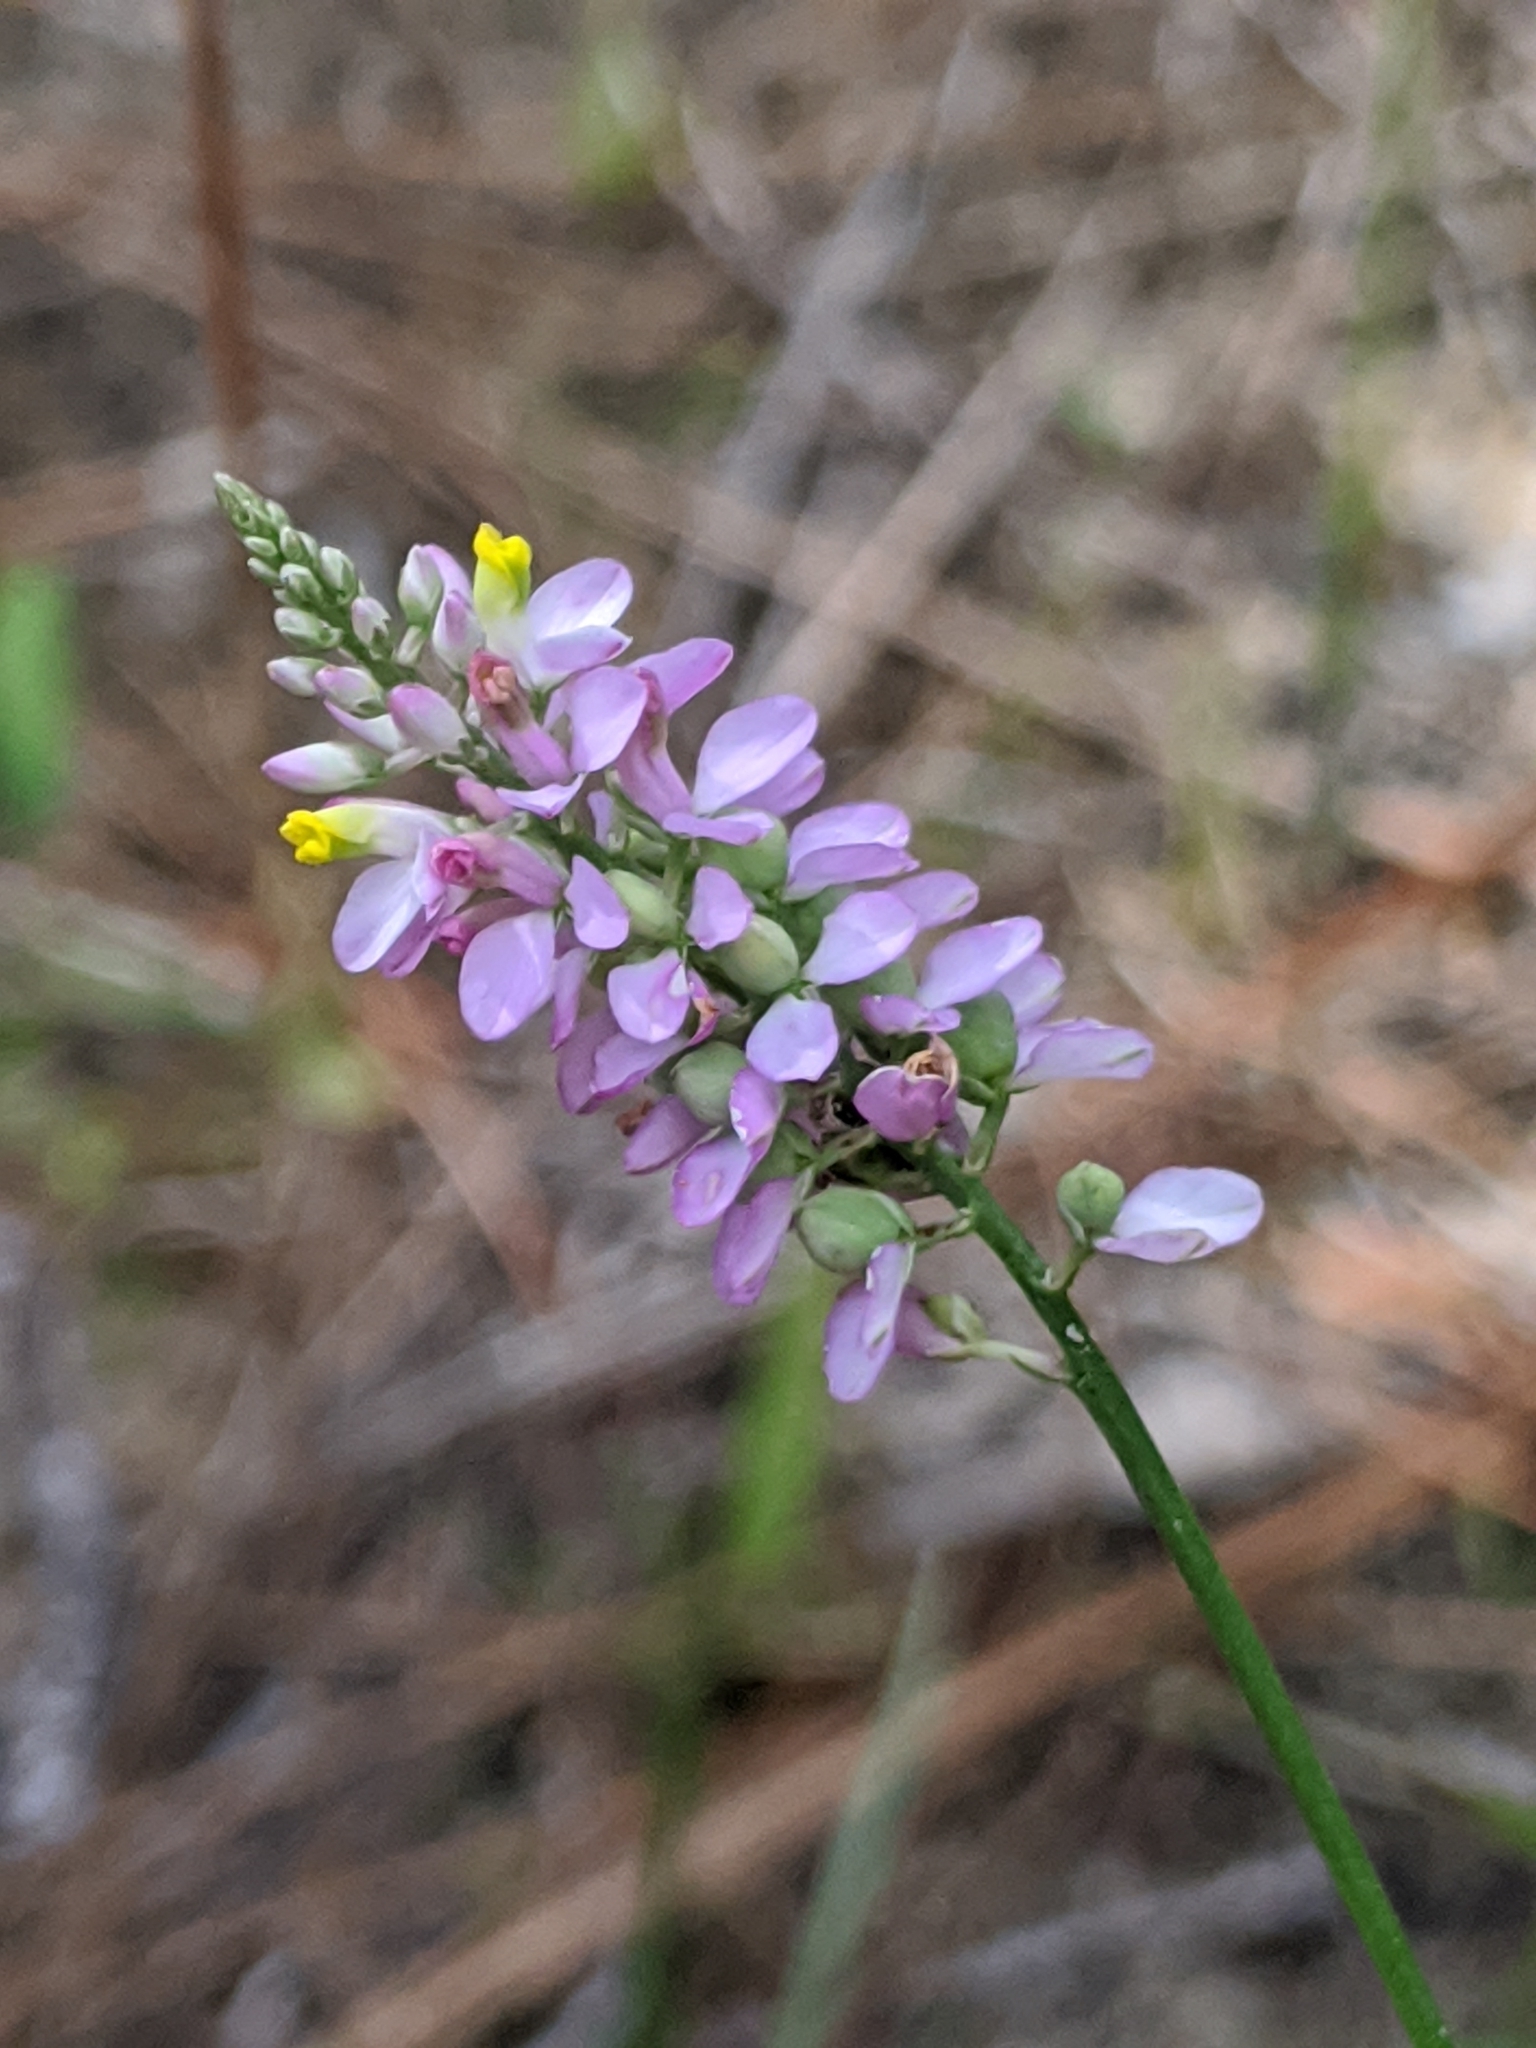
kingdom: Plantae
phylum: Tracheophyta
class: Magnoliopsida
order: Fabales
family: Polygalaceae
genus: Polygala
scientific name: Polygala chapmanii
